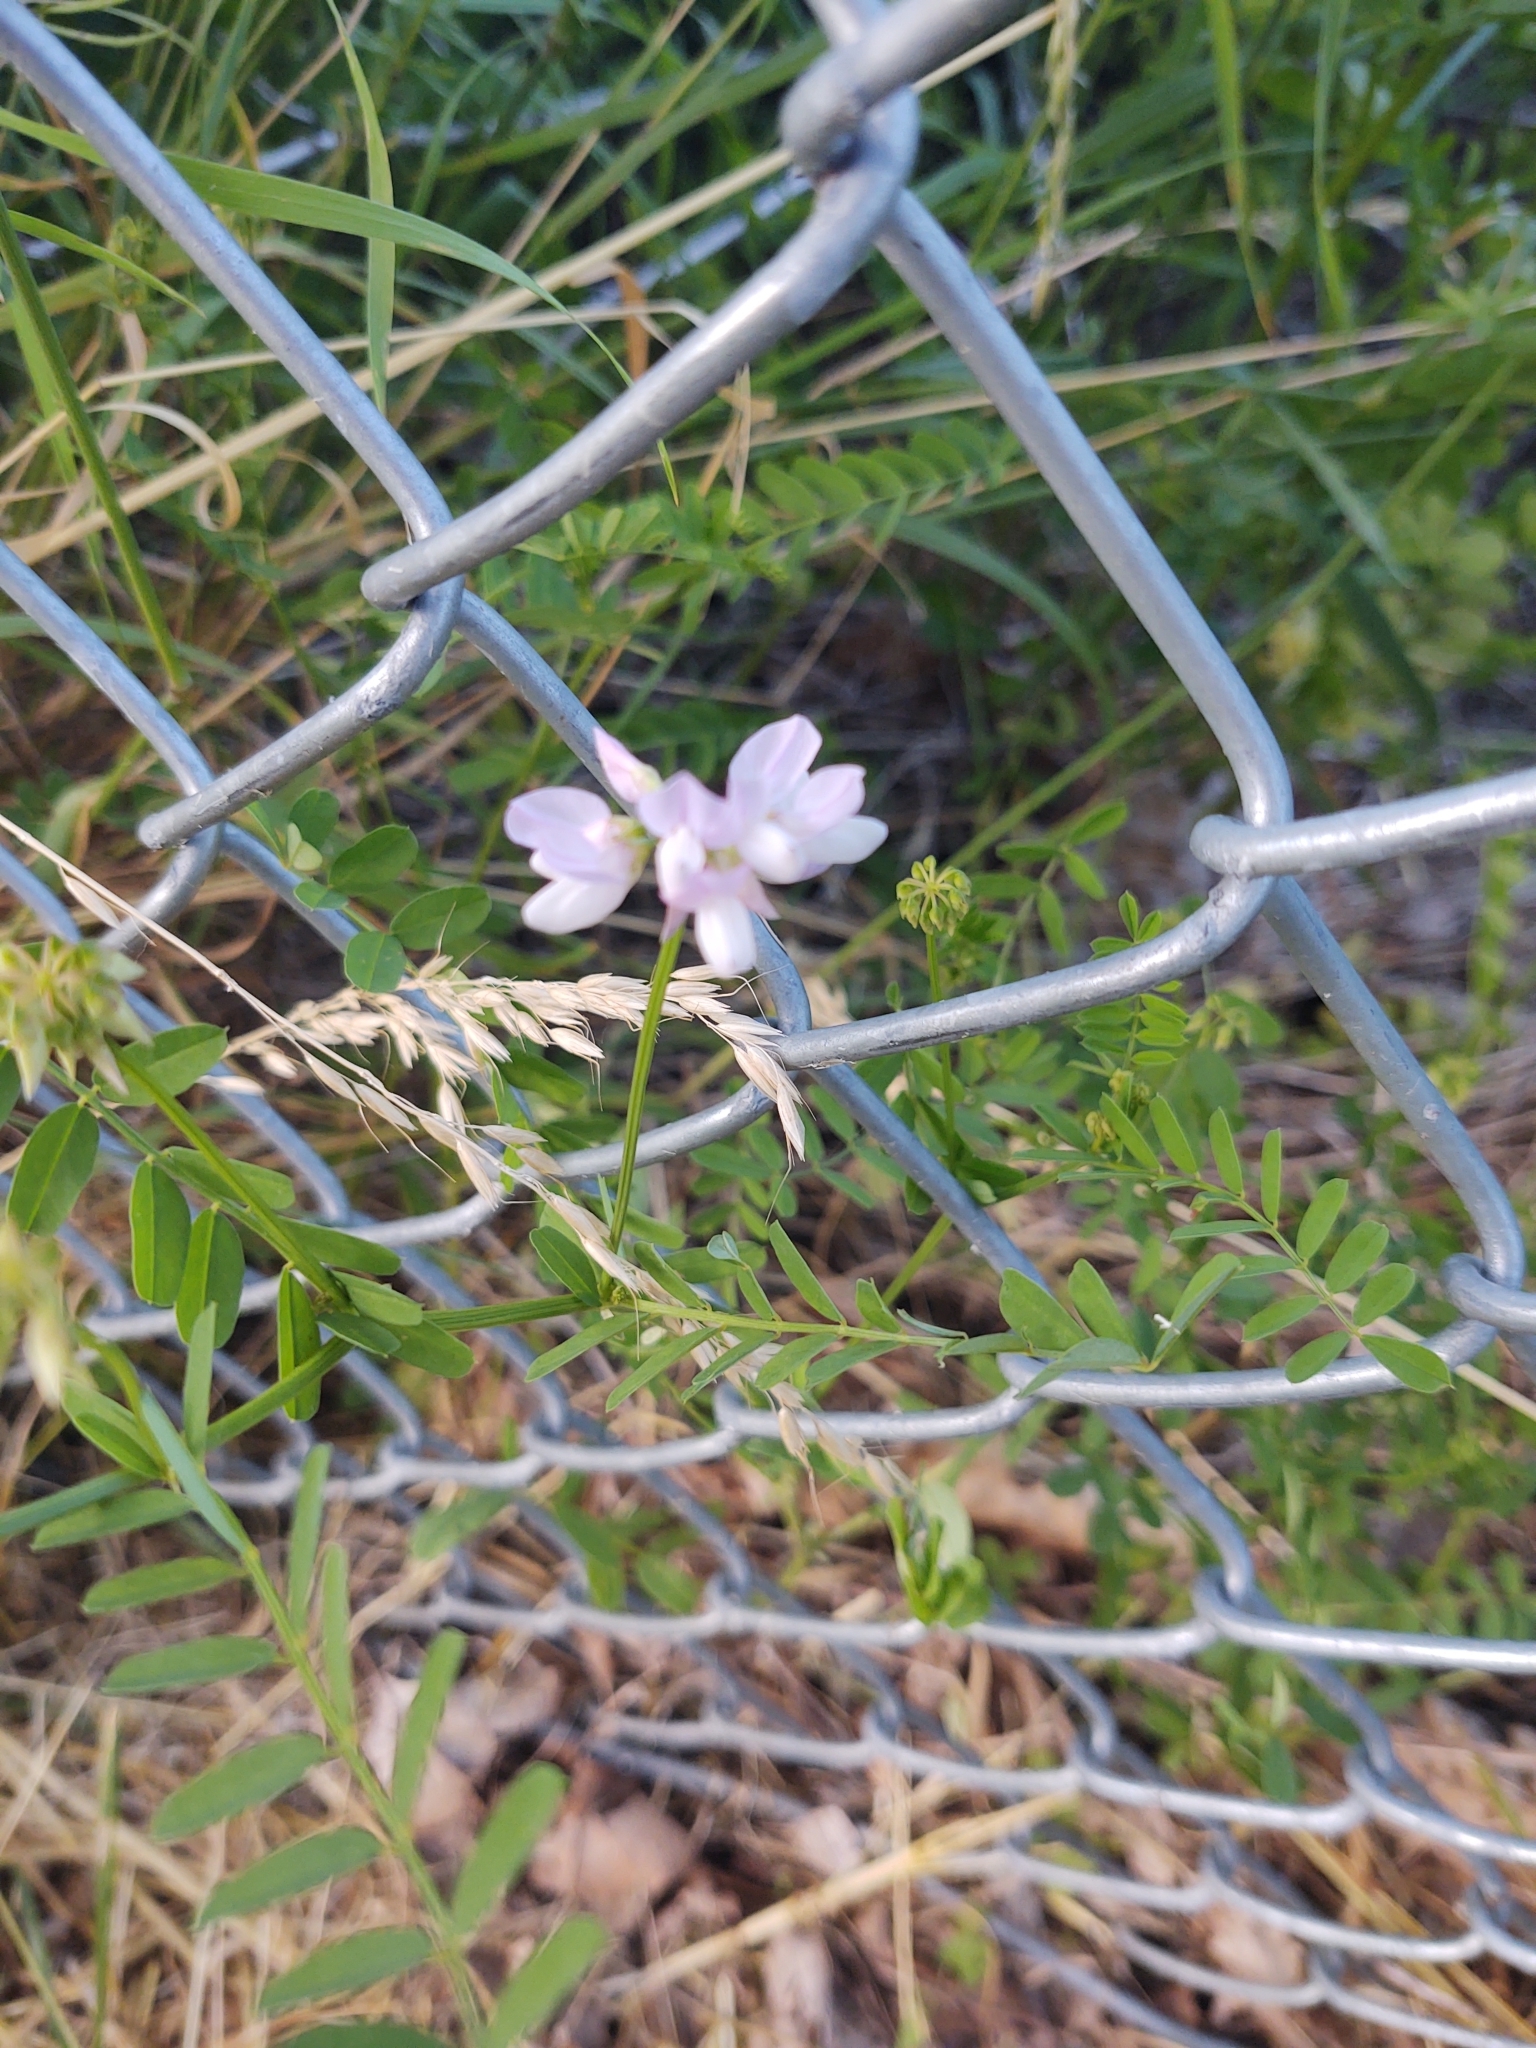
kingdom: Plantae
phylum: Tracheophyta
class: Magnoliopsida
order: Fabales
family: Fabaceae
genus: Coronilla
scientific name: Coronilla varia
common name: Crownvetch
